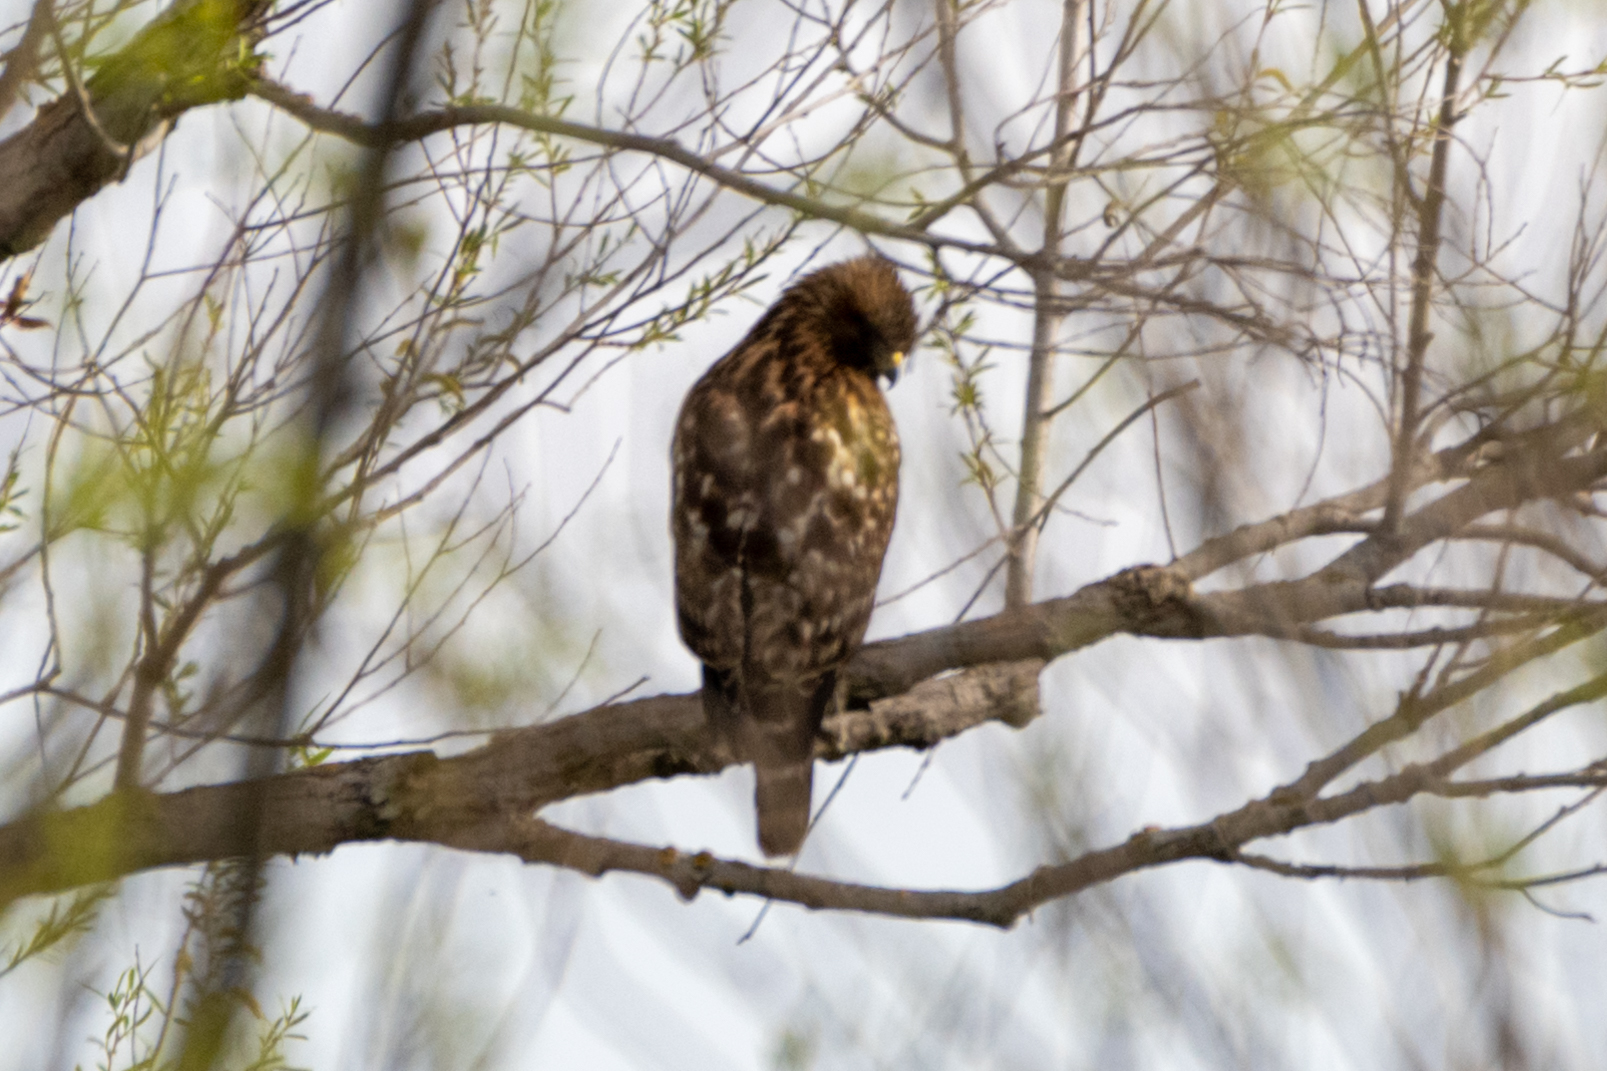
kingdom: Animalia
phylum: Chordata
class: Aves
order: Accipitriformes
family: Accipitridae
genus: Buteo
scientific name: Buteo lineatus
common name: Red-shouldered hawk
